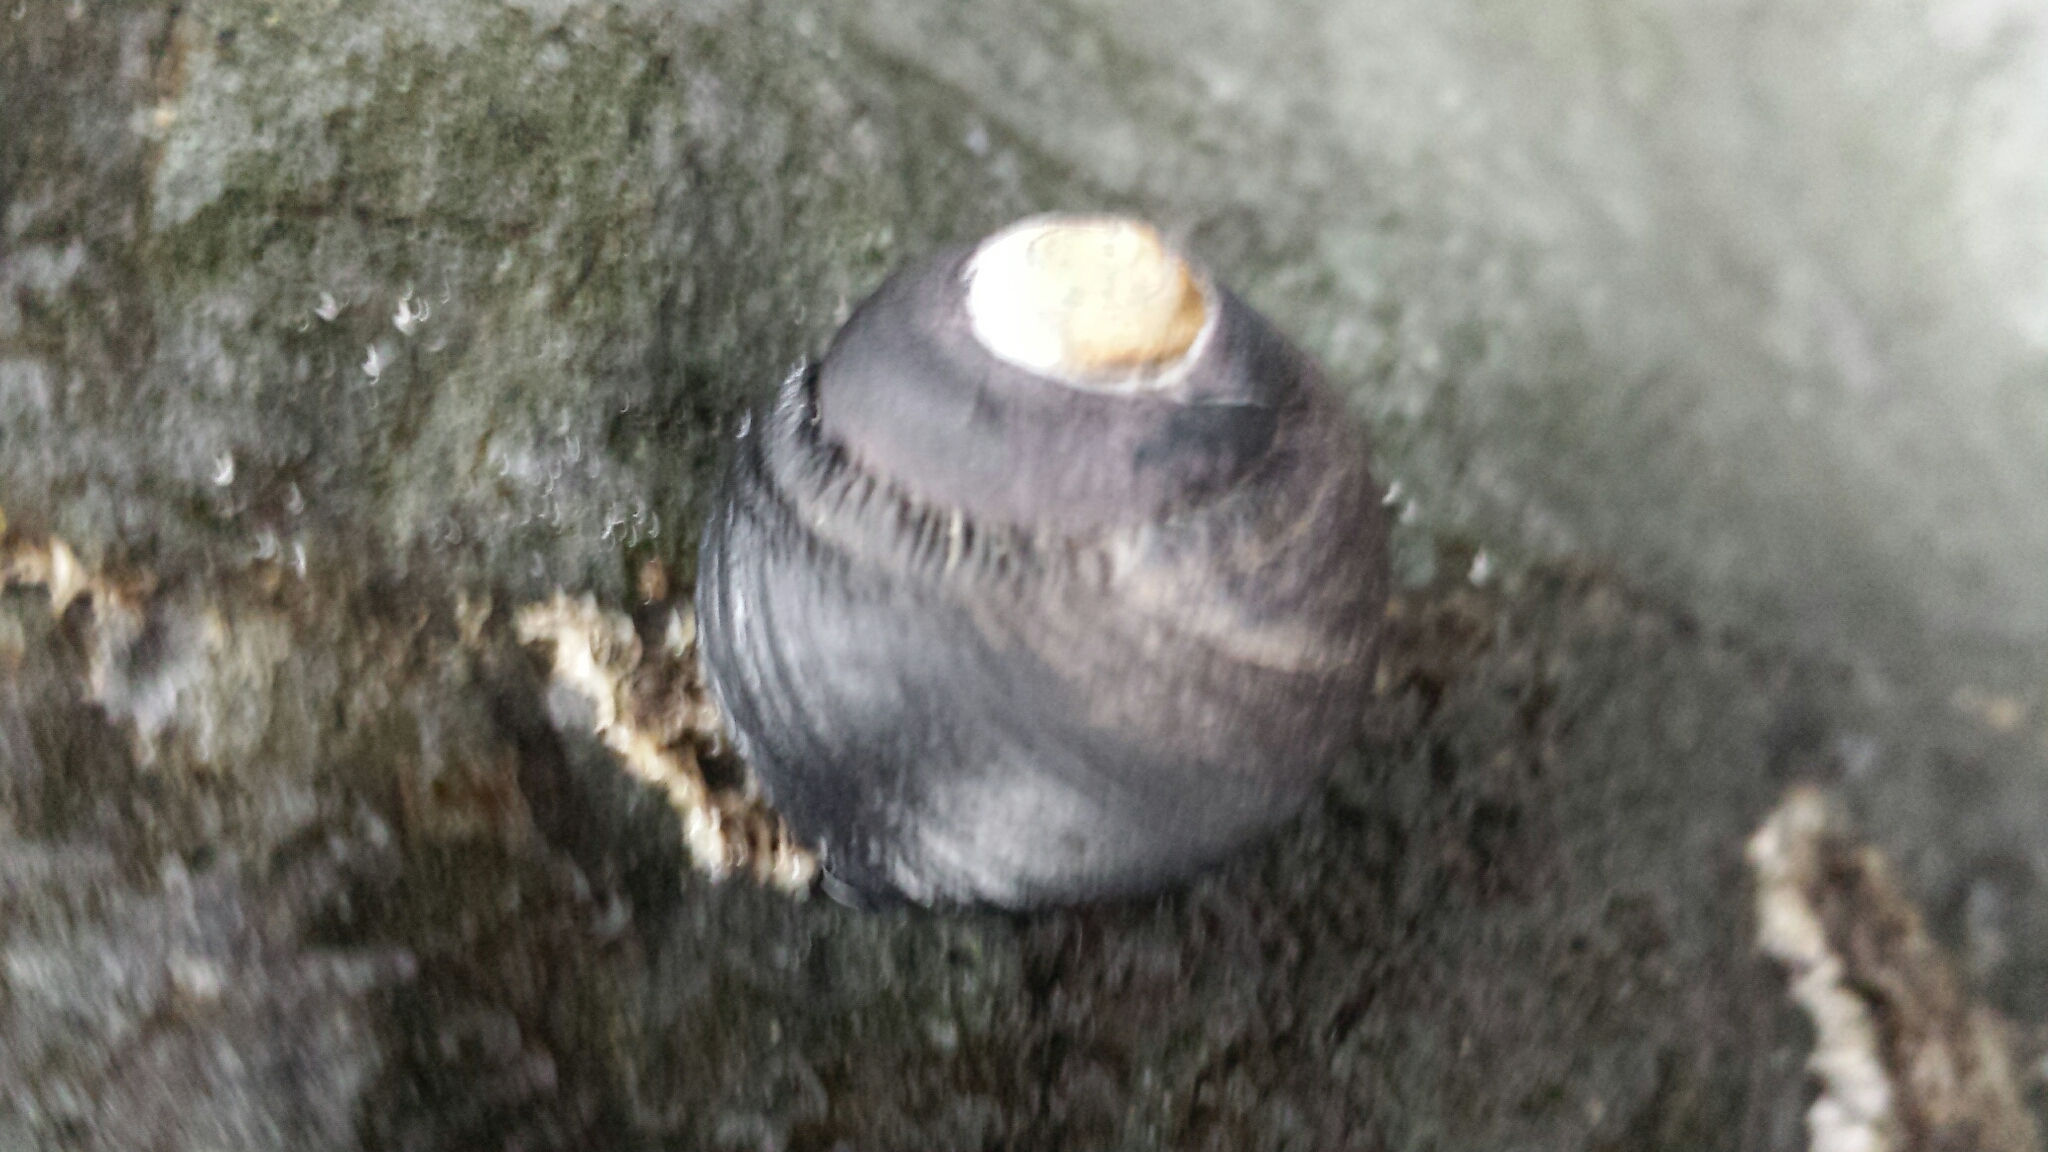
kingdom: Animalia
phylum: Mollusca
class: Gastropoda
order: Trochida
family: Tegulidae
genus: Tegula
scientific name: Tegula funebralis
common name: Black tegula
